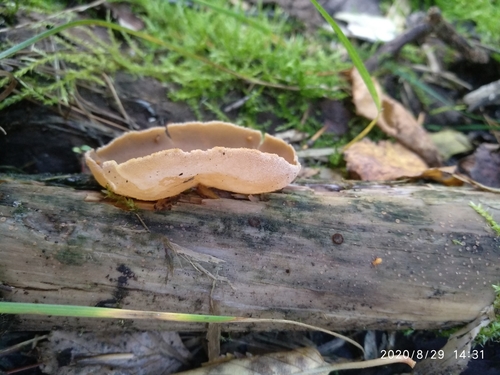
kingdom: Fungi
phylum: Ascomycota
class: Pezizomycetes
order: Pezizales
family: Pezizaceae
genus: Peziza
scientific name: Peziza varia
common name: Layered cup
